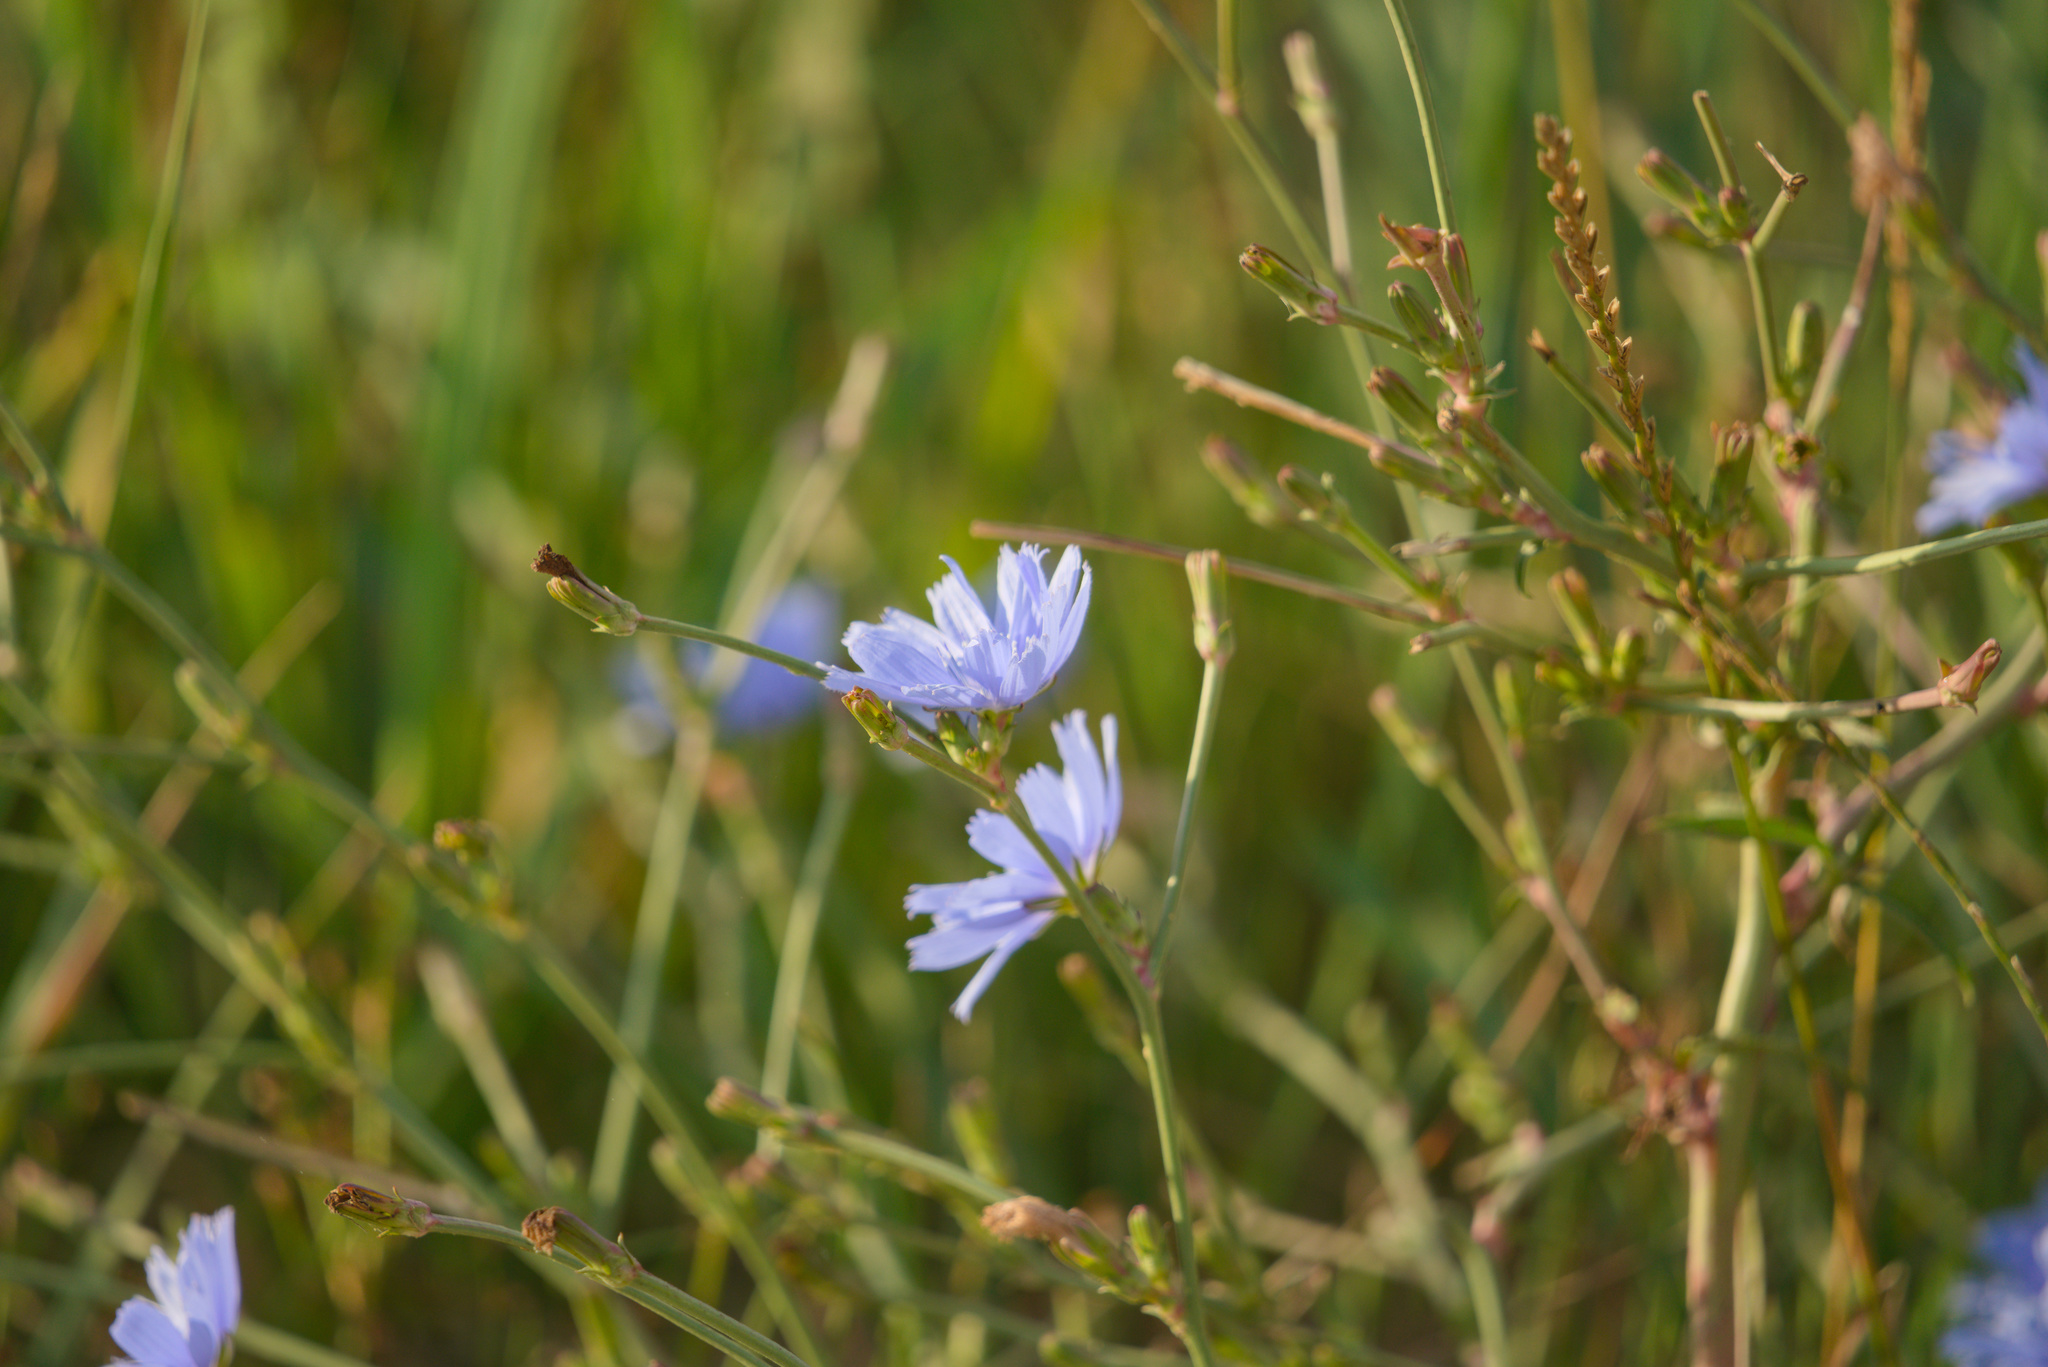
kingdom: Plantae
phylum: Tracheophyta
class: Magnoliopsida
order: Asterales
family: Asteraceae
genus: Cichorium
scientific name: Cichorium intybus
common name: Chicory
